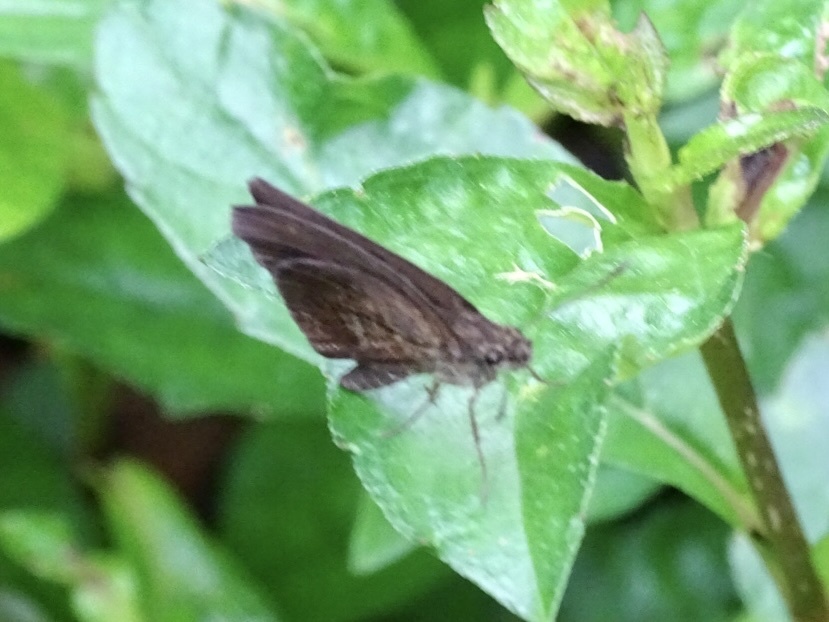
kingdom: Animalia
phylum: Arthropoda
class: Insecta
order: Lepidoptera
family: Hesperiidae
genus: Astictopterus
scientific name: Astictopterus jama
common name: Forest hopper
